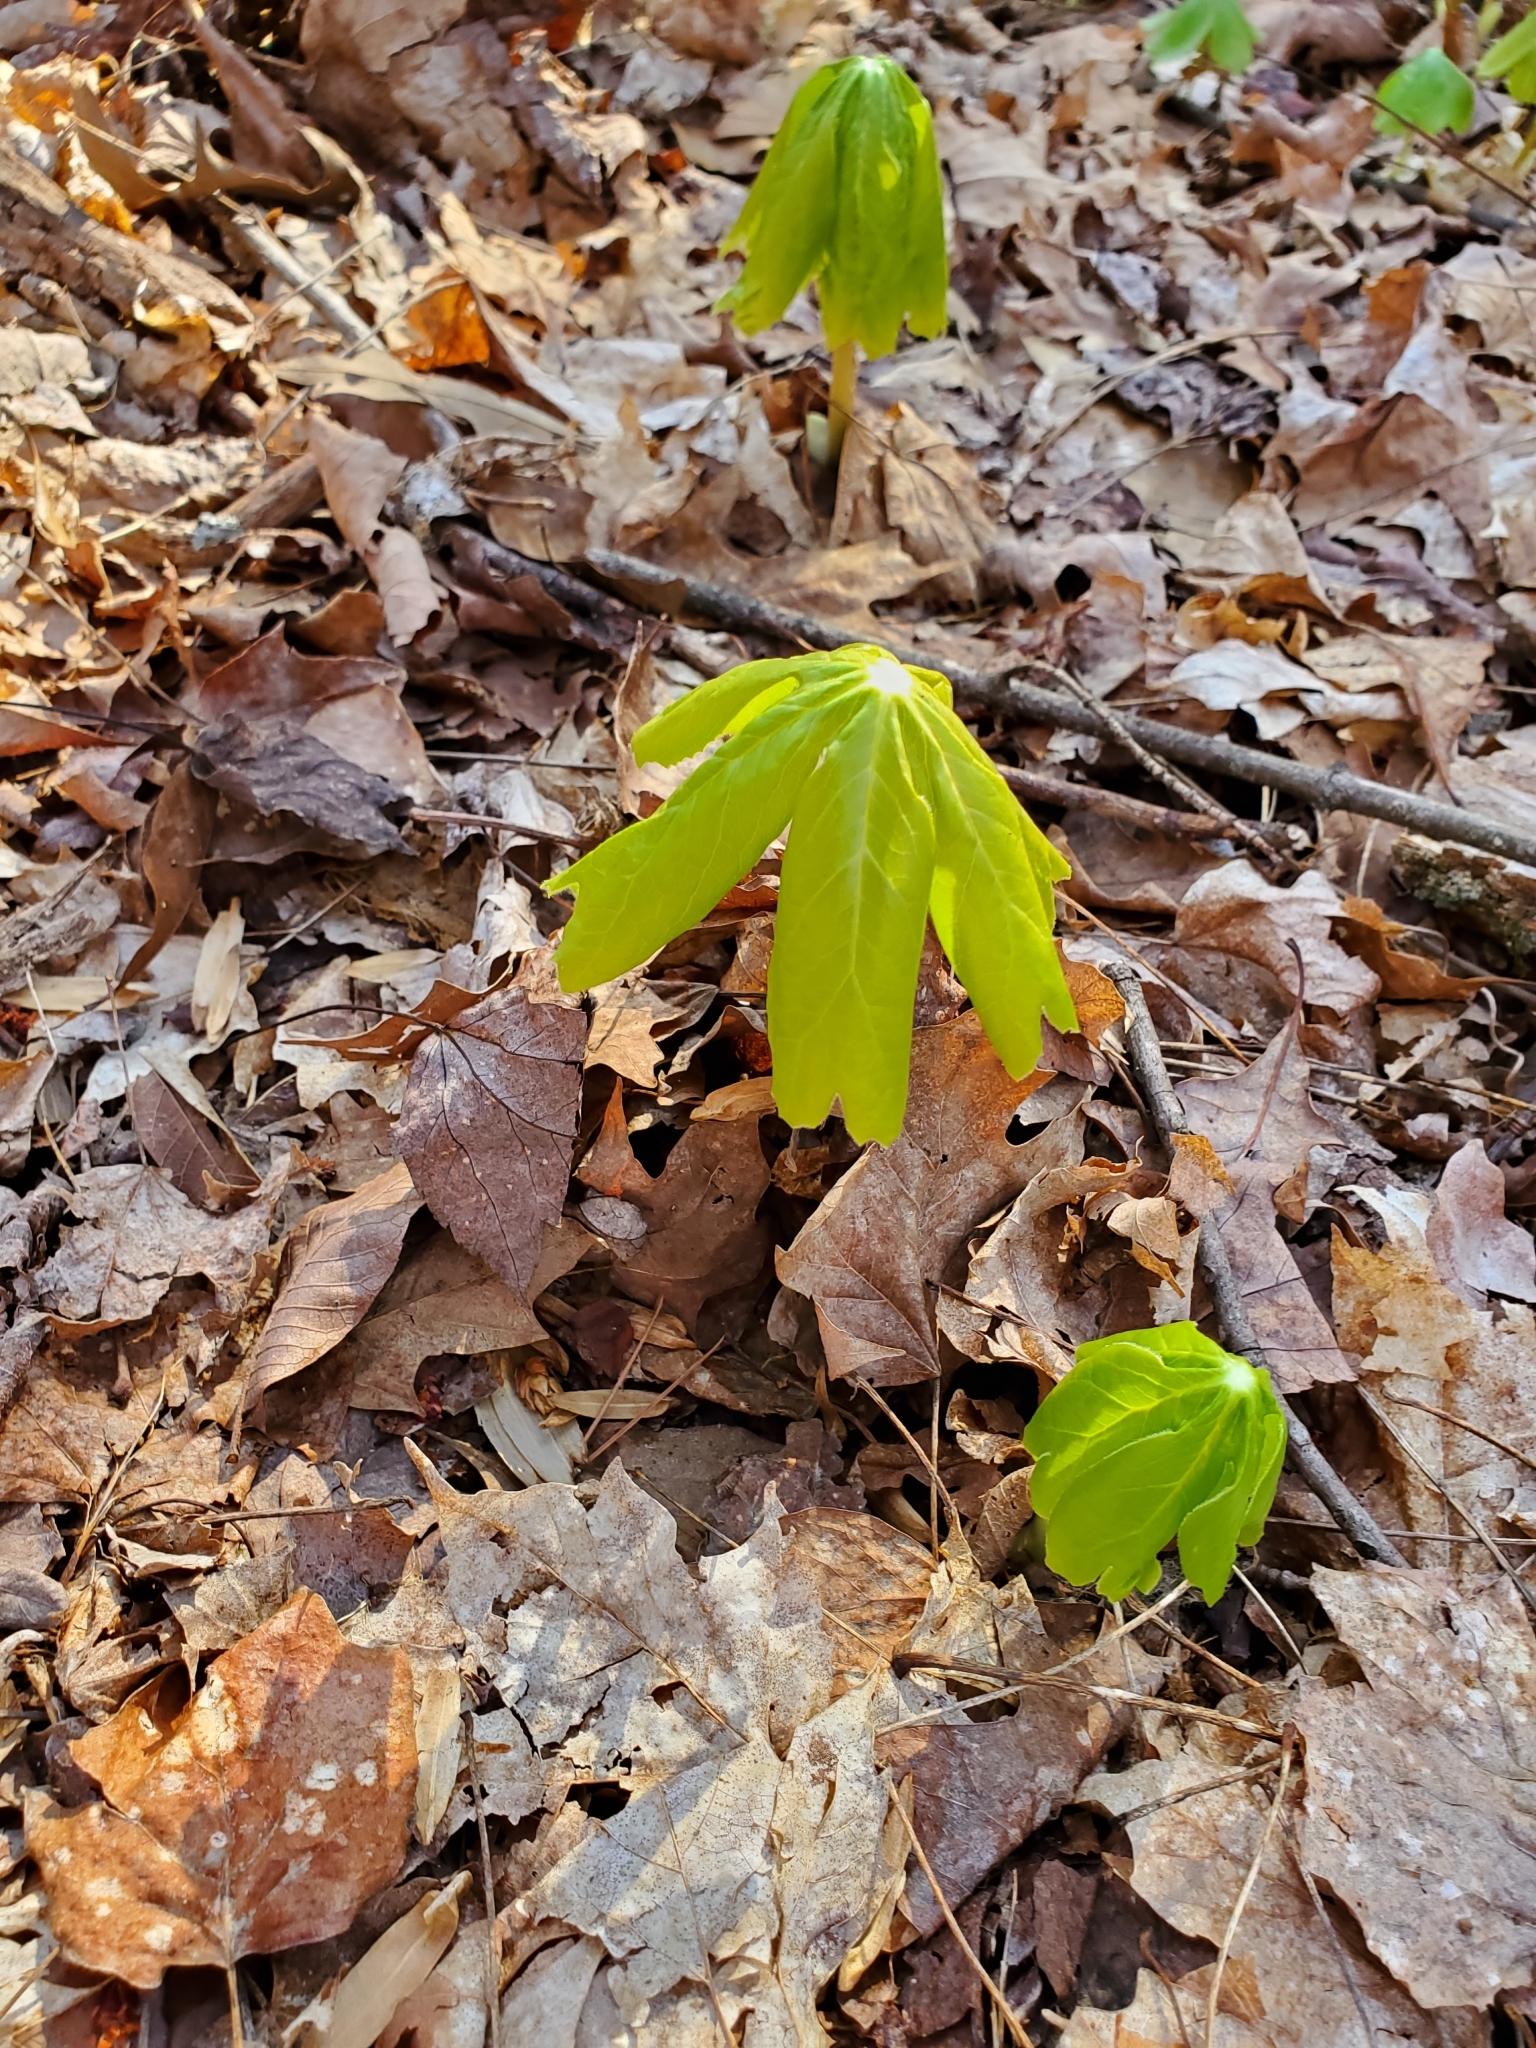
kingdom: Plantae
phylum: Tracheophyta
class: Magnoliopsida
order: Ranunculales
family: Berberidaceae
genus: Podophyllum
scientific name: Podophyllum peltatum
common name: Wild mandrake
